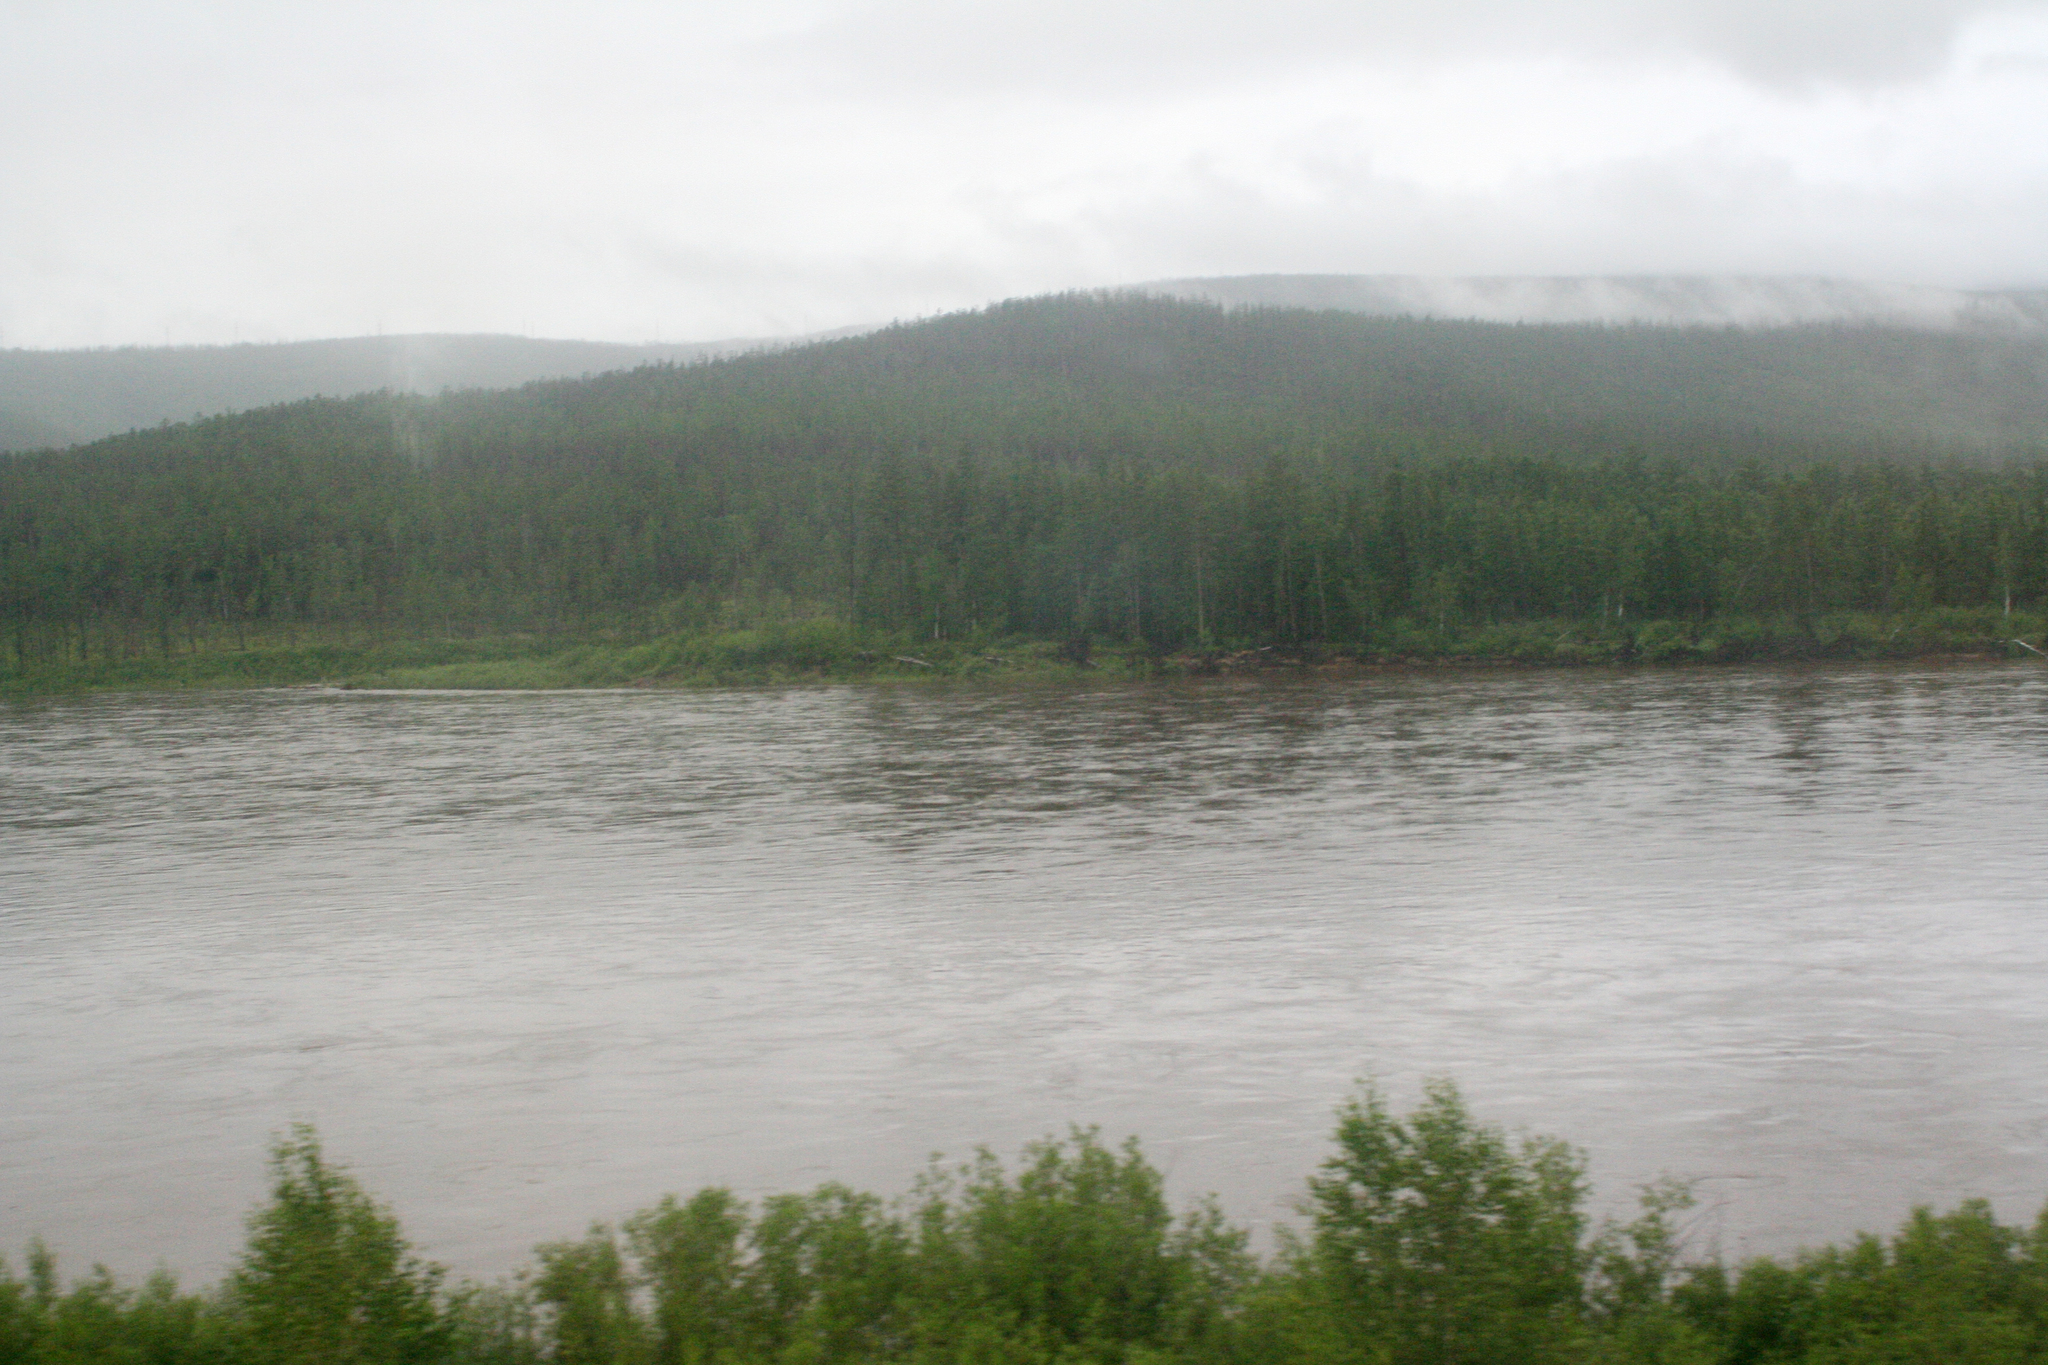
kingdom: Plantae
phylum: Tracheophyta
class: Pinopsida
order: Pinales
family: Pinaceae
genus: Larix
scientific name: Larix gmelinii
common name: Dahurian larch
